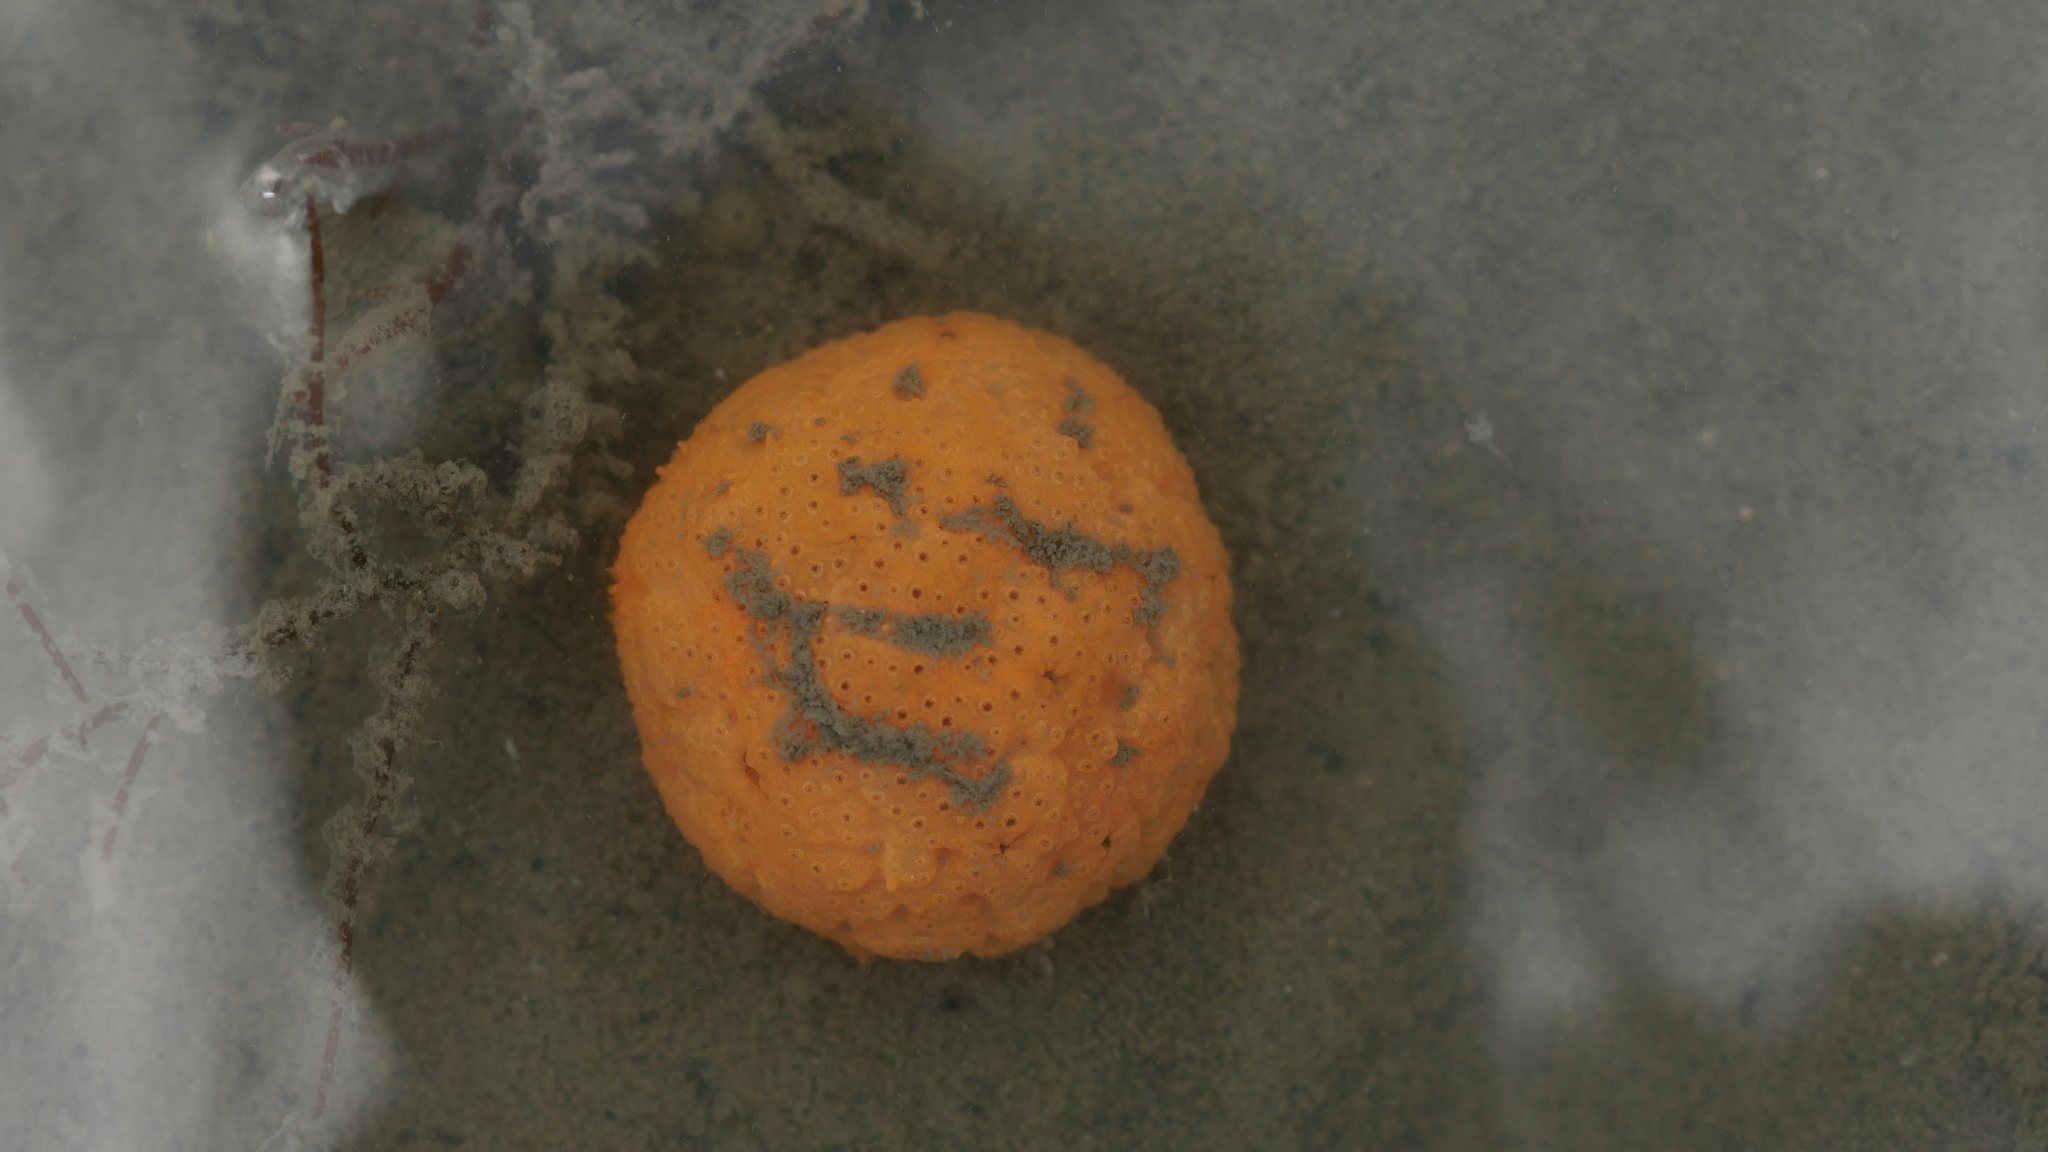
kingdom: Animalia
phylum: Chordata
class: Ascidiacea
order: Aplousobranchia
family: Polyclinidae
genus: Aplidium
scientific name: Aplidium stellatum
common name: Atlantic sea pork
